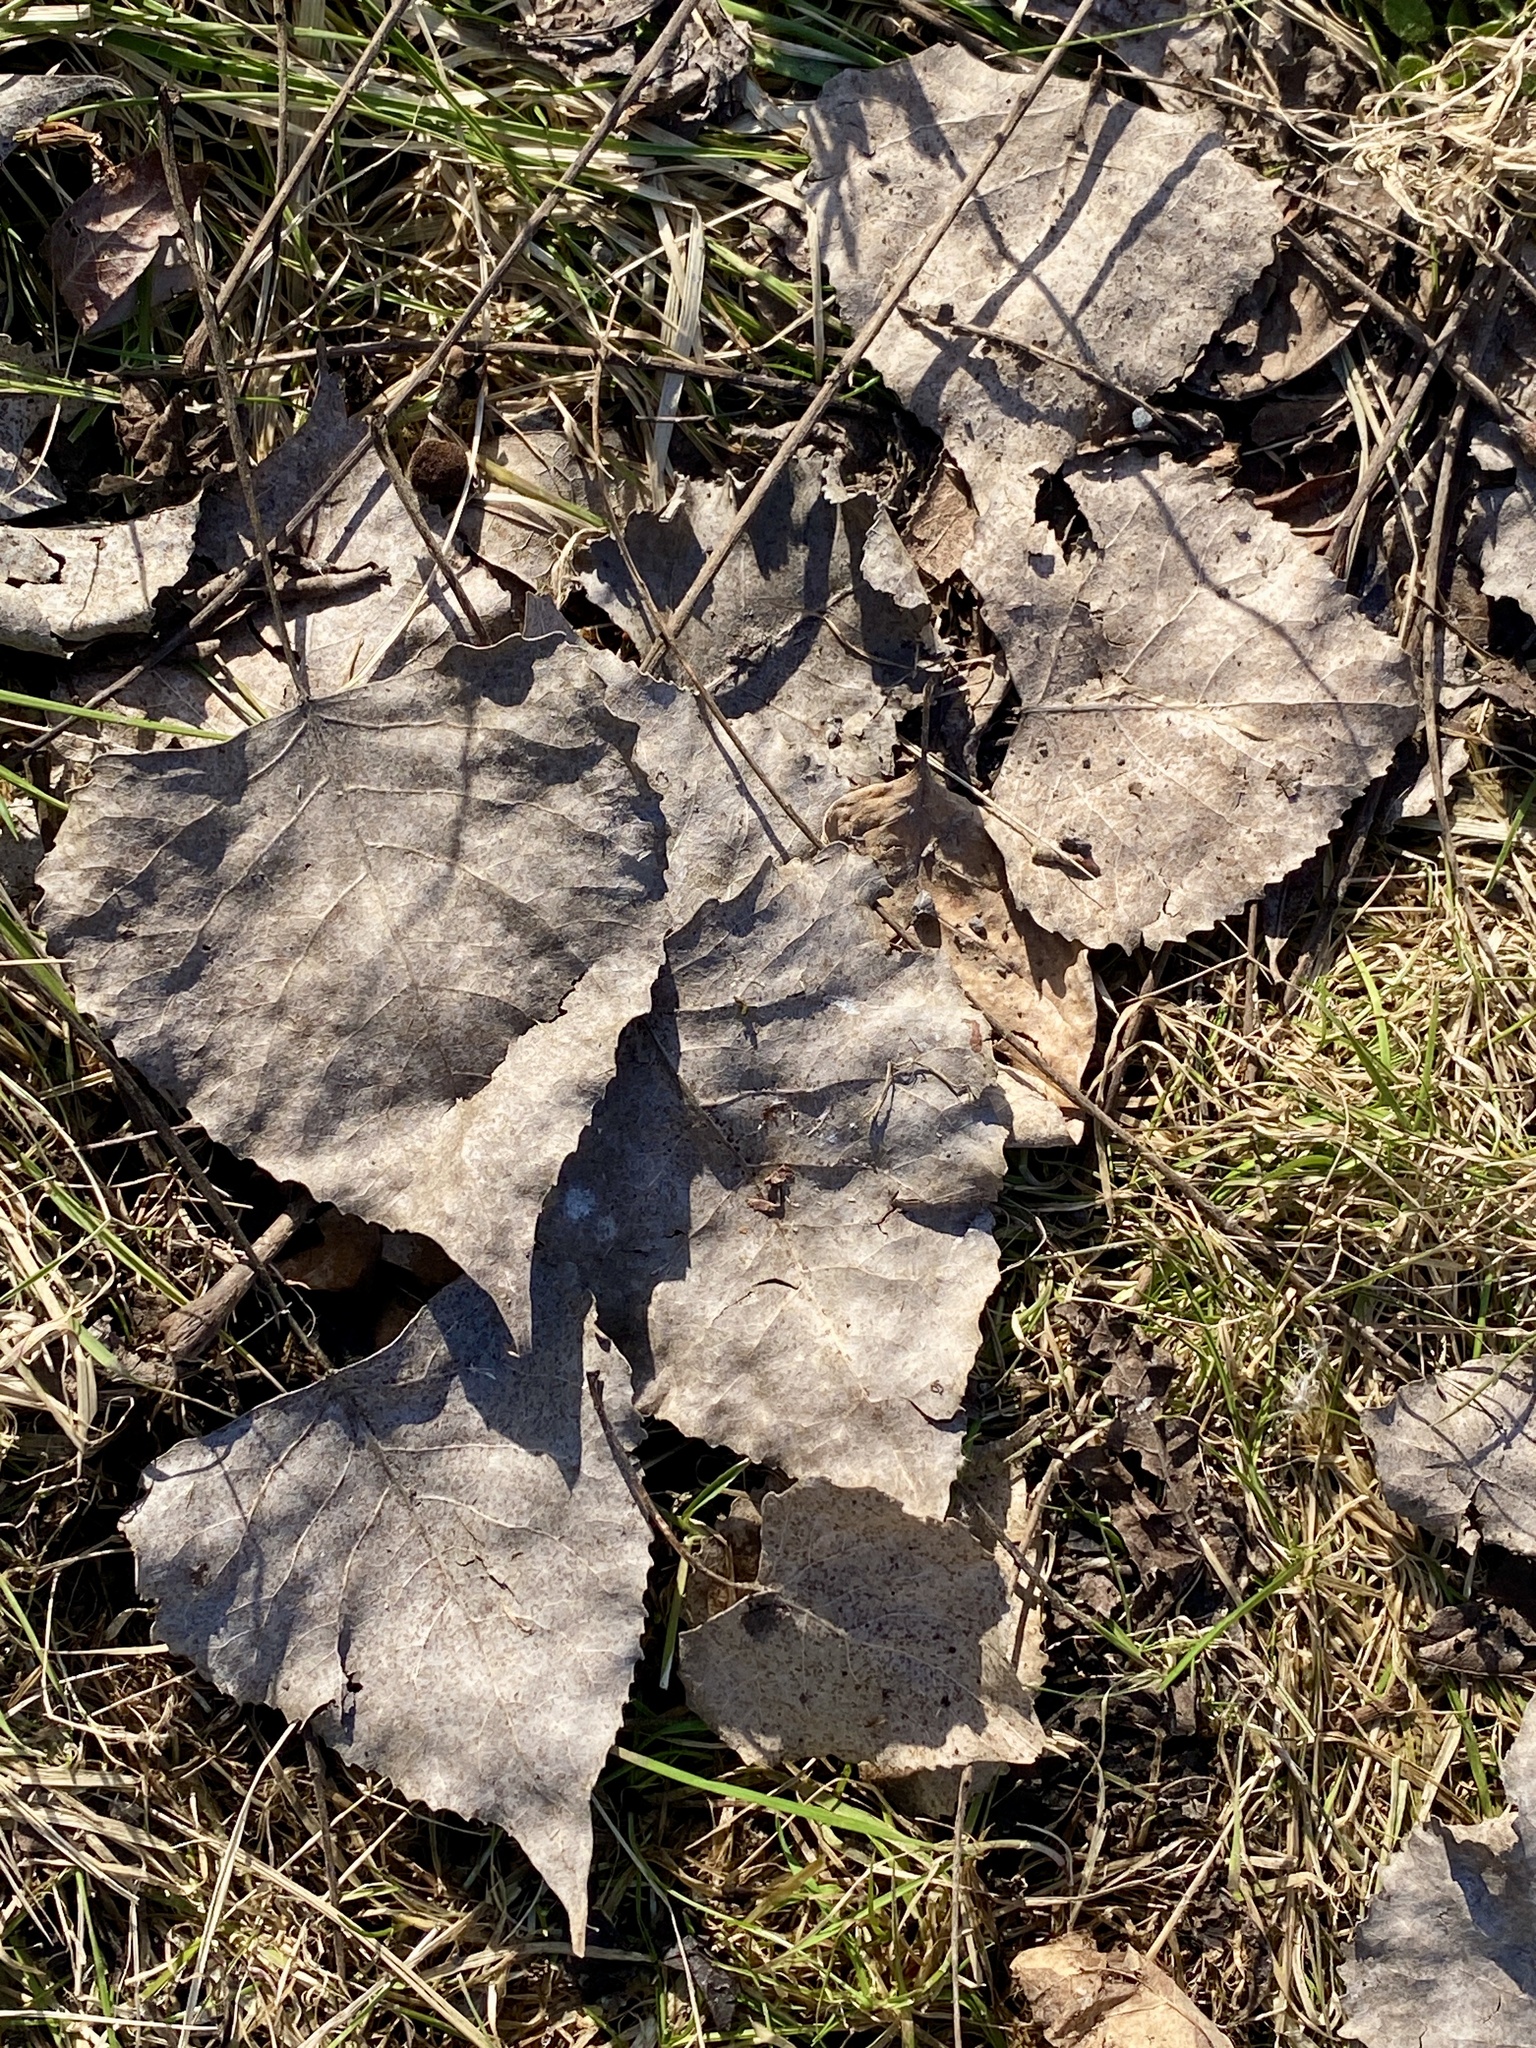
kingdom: Plantae
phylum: Tracheophyta
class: Magnoliopsida
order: Malpighiales
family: Salicaceae
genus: Populus
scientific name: Populus deltoides
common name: Eastern cottonwood
